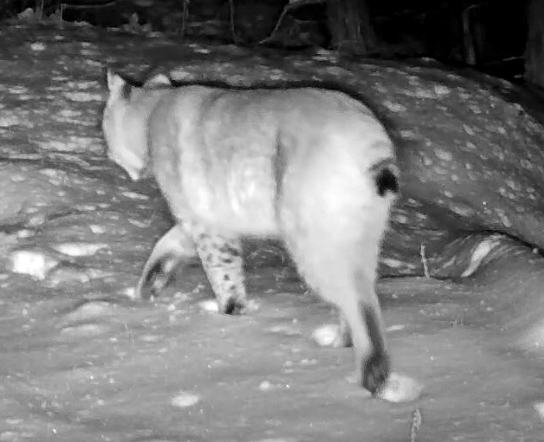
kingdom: Animalia
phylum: Chordata
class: Mammalia
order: Carnivora
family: Felidae
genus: Lynx
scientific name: Lynx rufus
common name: Bobcat
